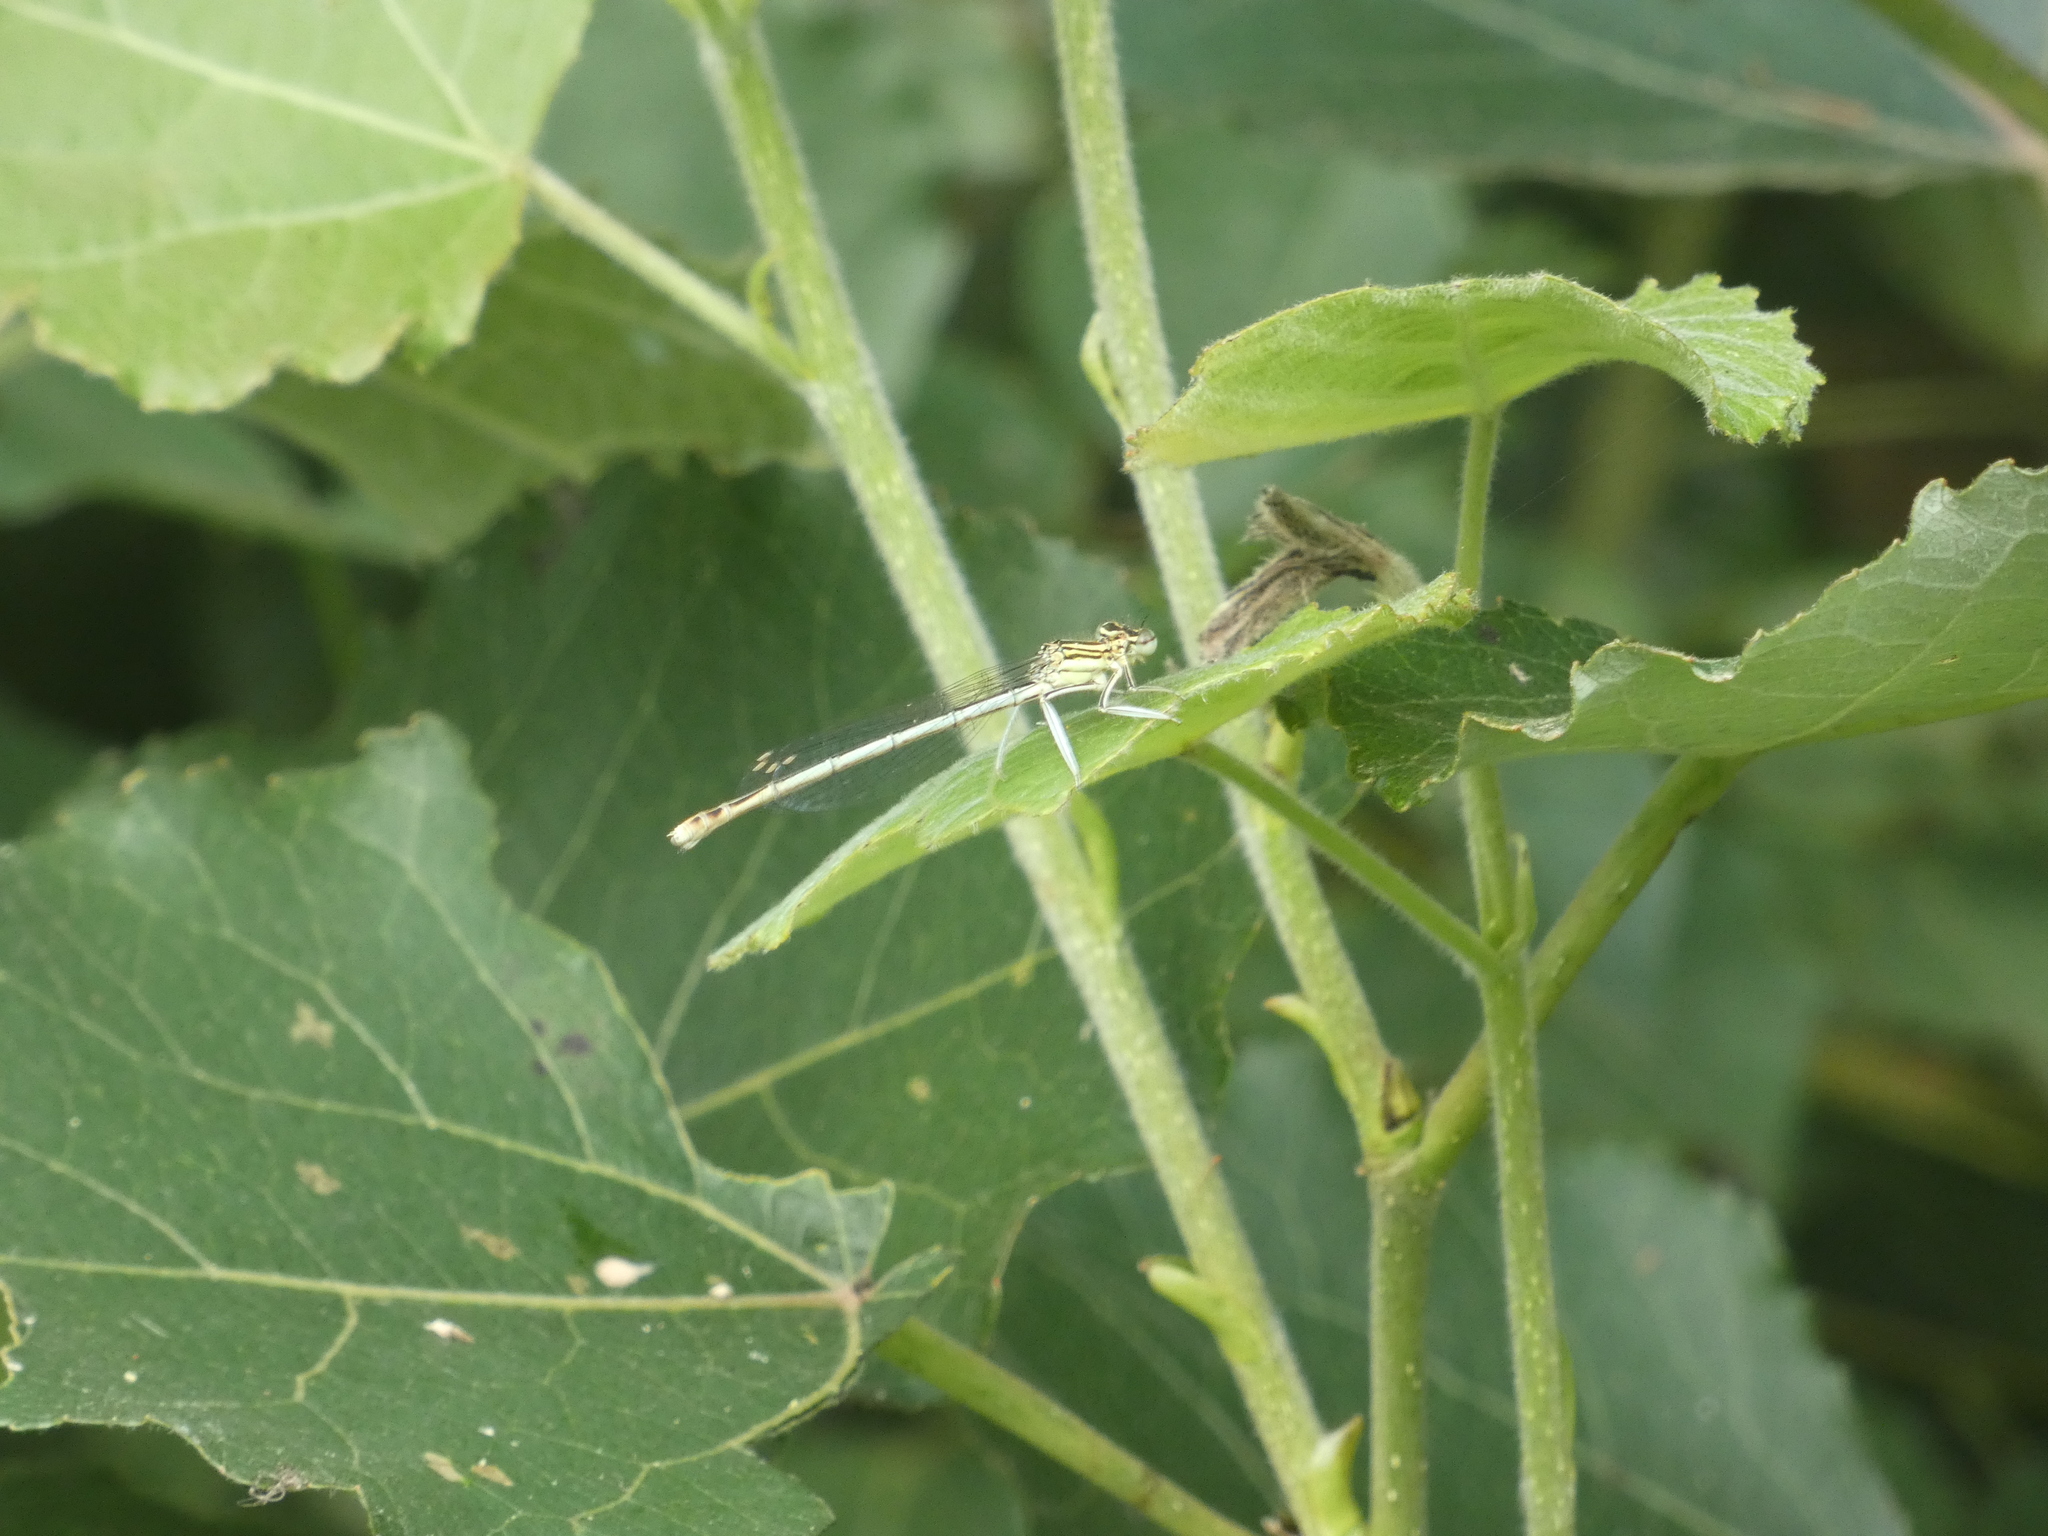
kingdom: Animalia
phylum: Arthropoda
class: Insecta
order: Odonata
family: Platycnemididae
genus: Platycnemis
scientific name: Platycnemis pennipes
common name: White-legged damselfly
